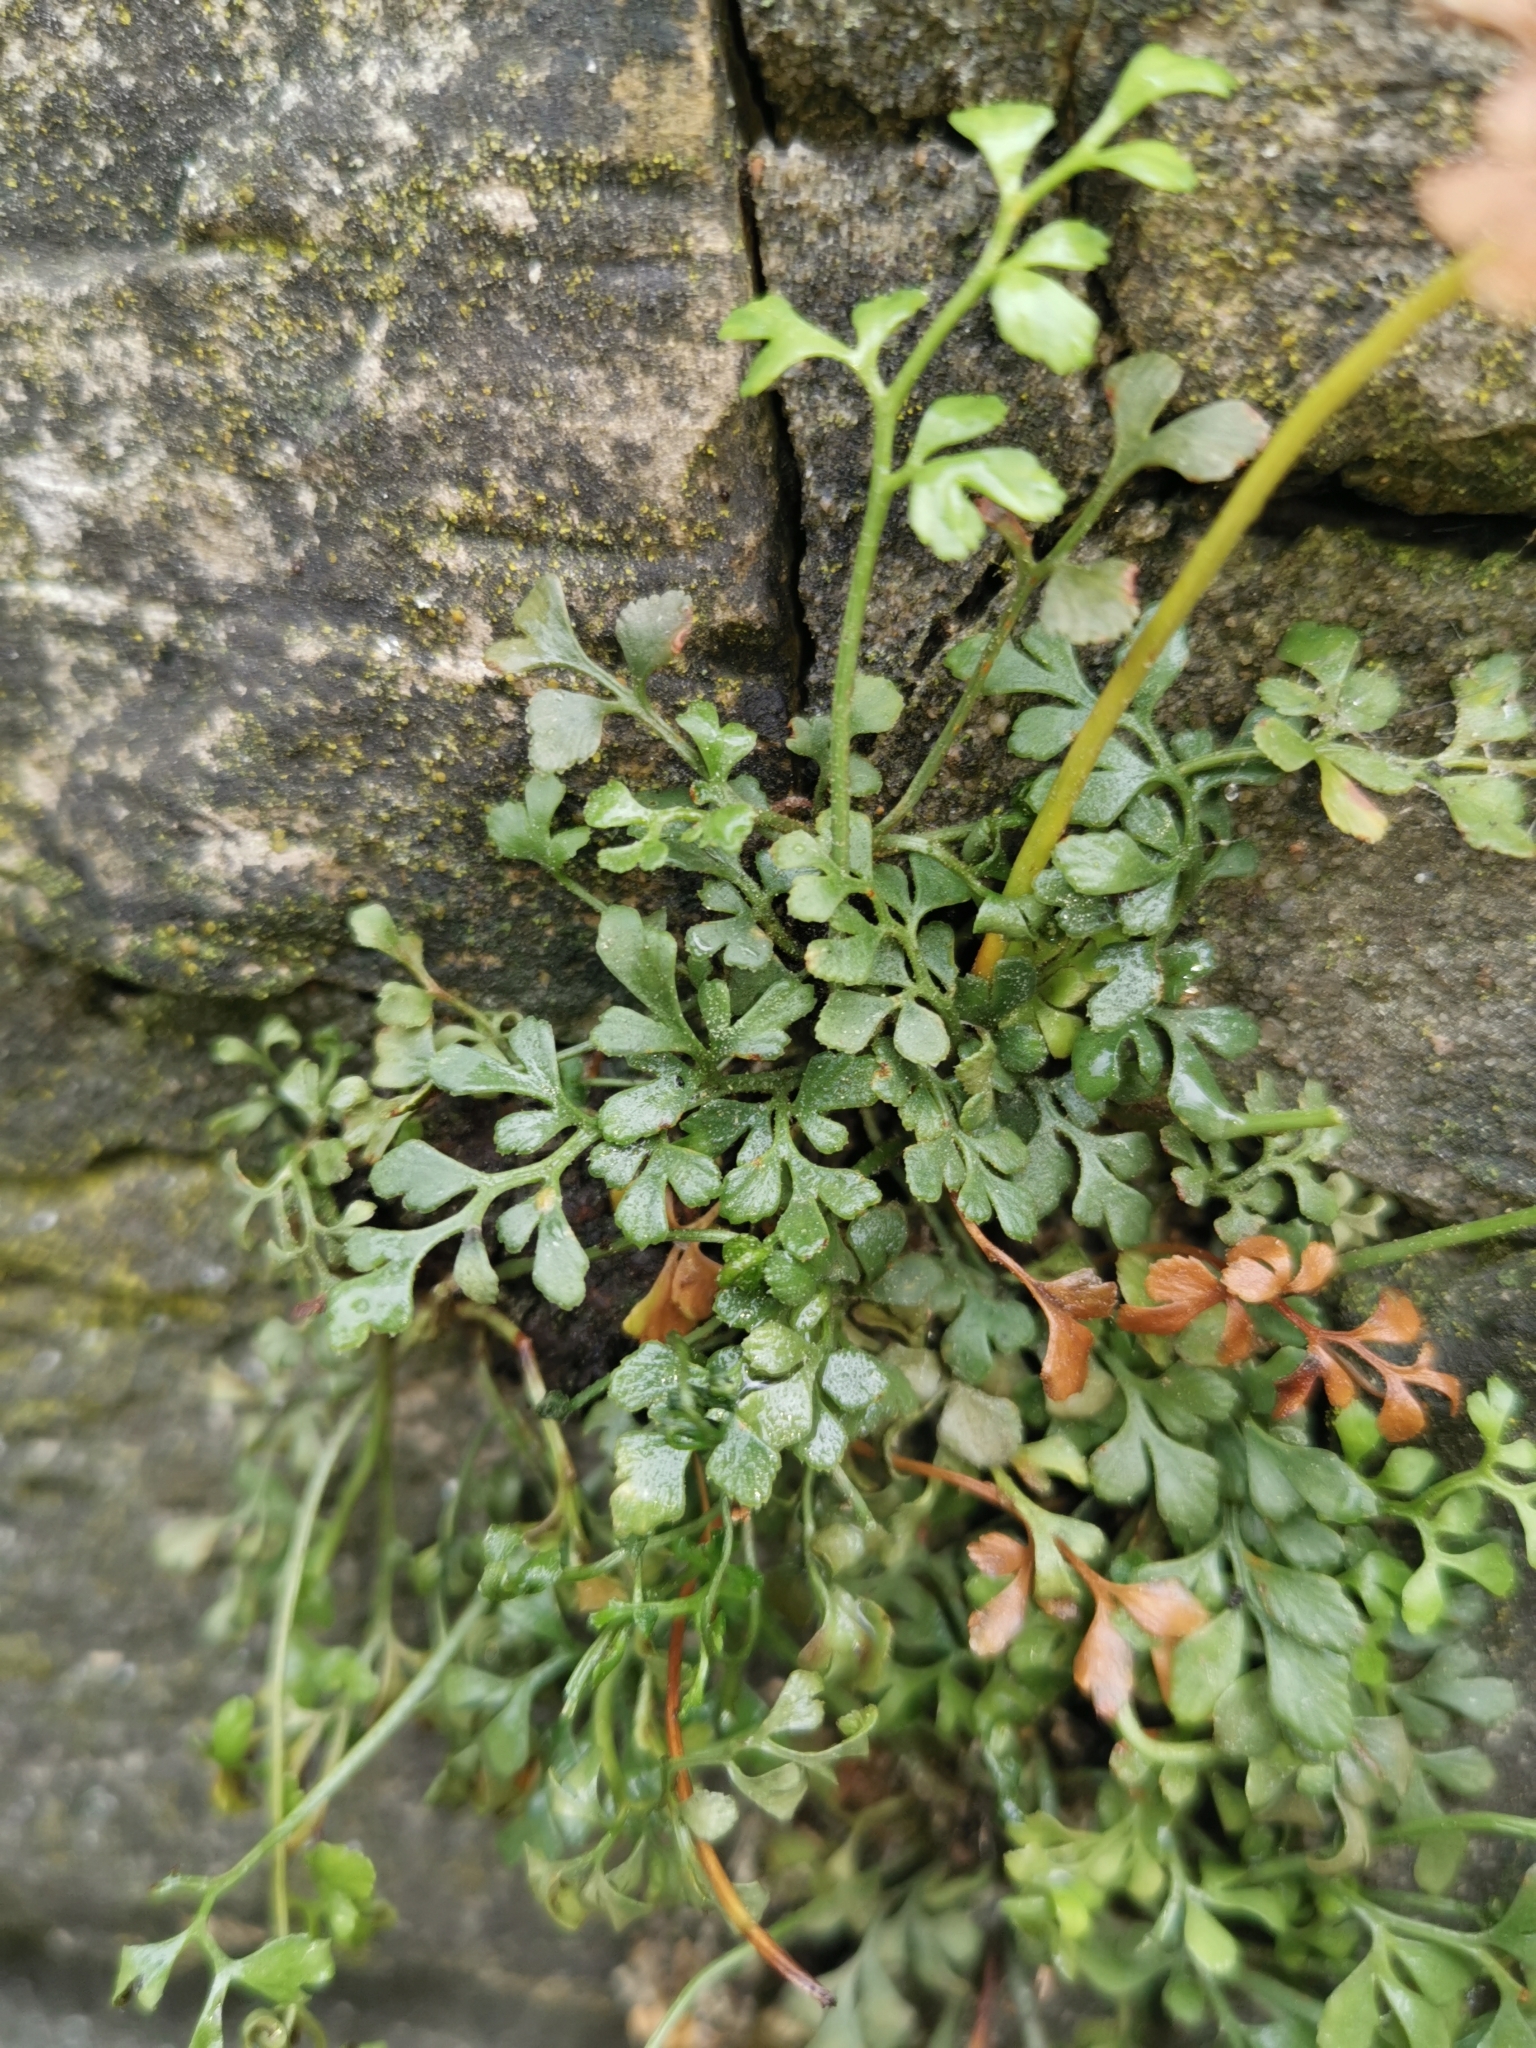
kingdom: Plantae
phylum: Tracheophyta
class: Polypodiopsida
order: Polypodiales
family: Aspleniaceae
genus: Asplenium
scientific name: Asplenium ruta-muraria
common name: Wall-rue
